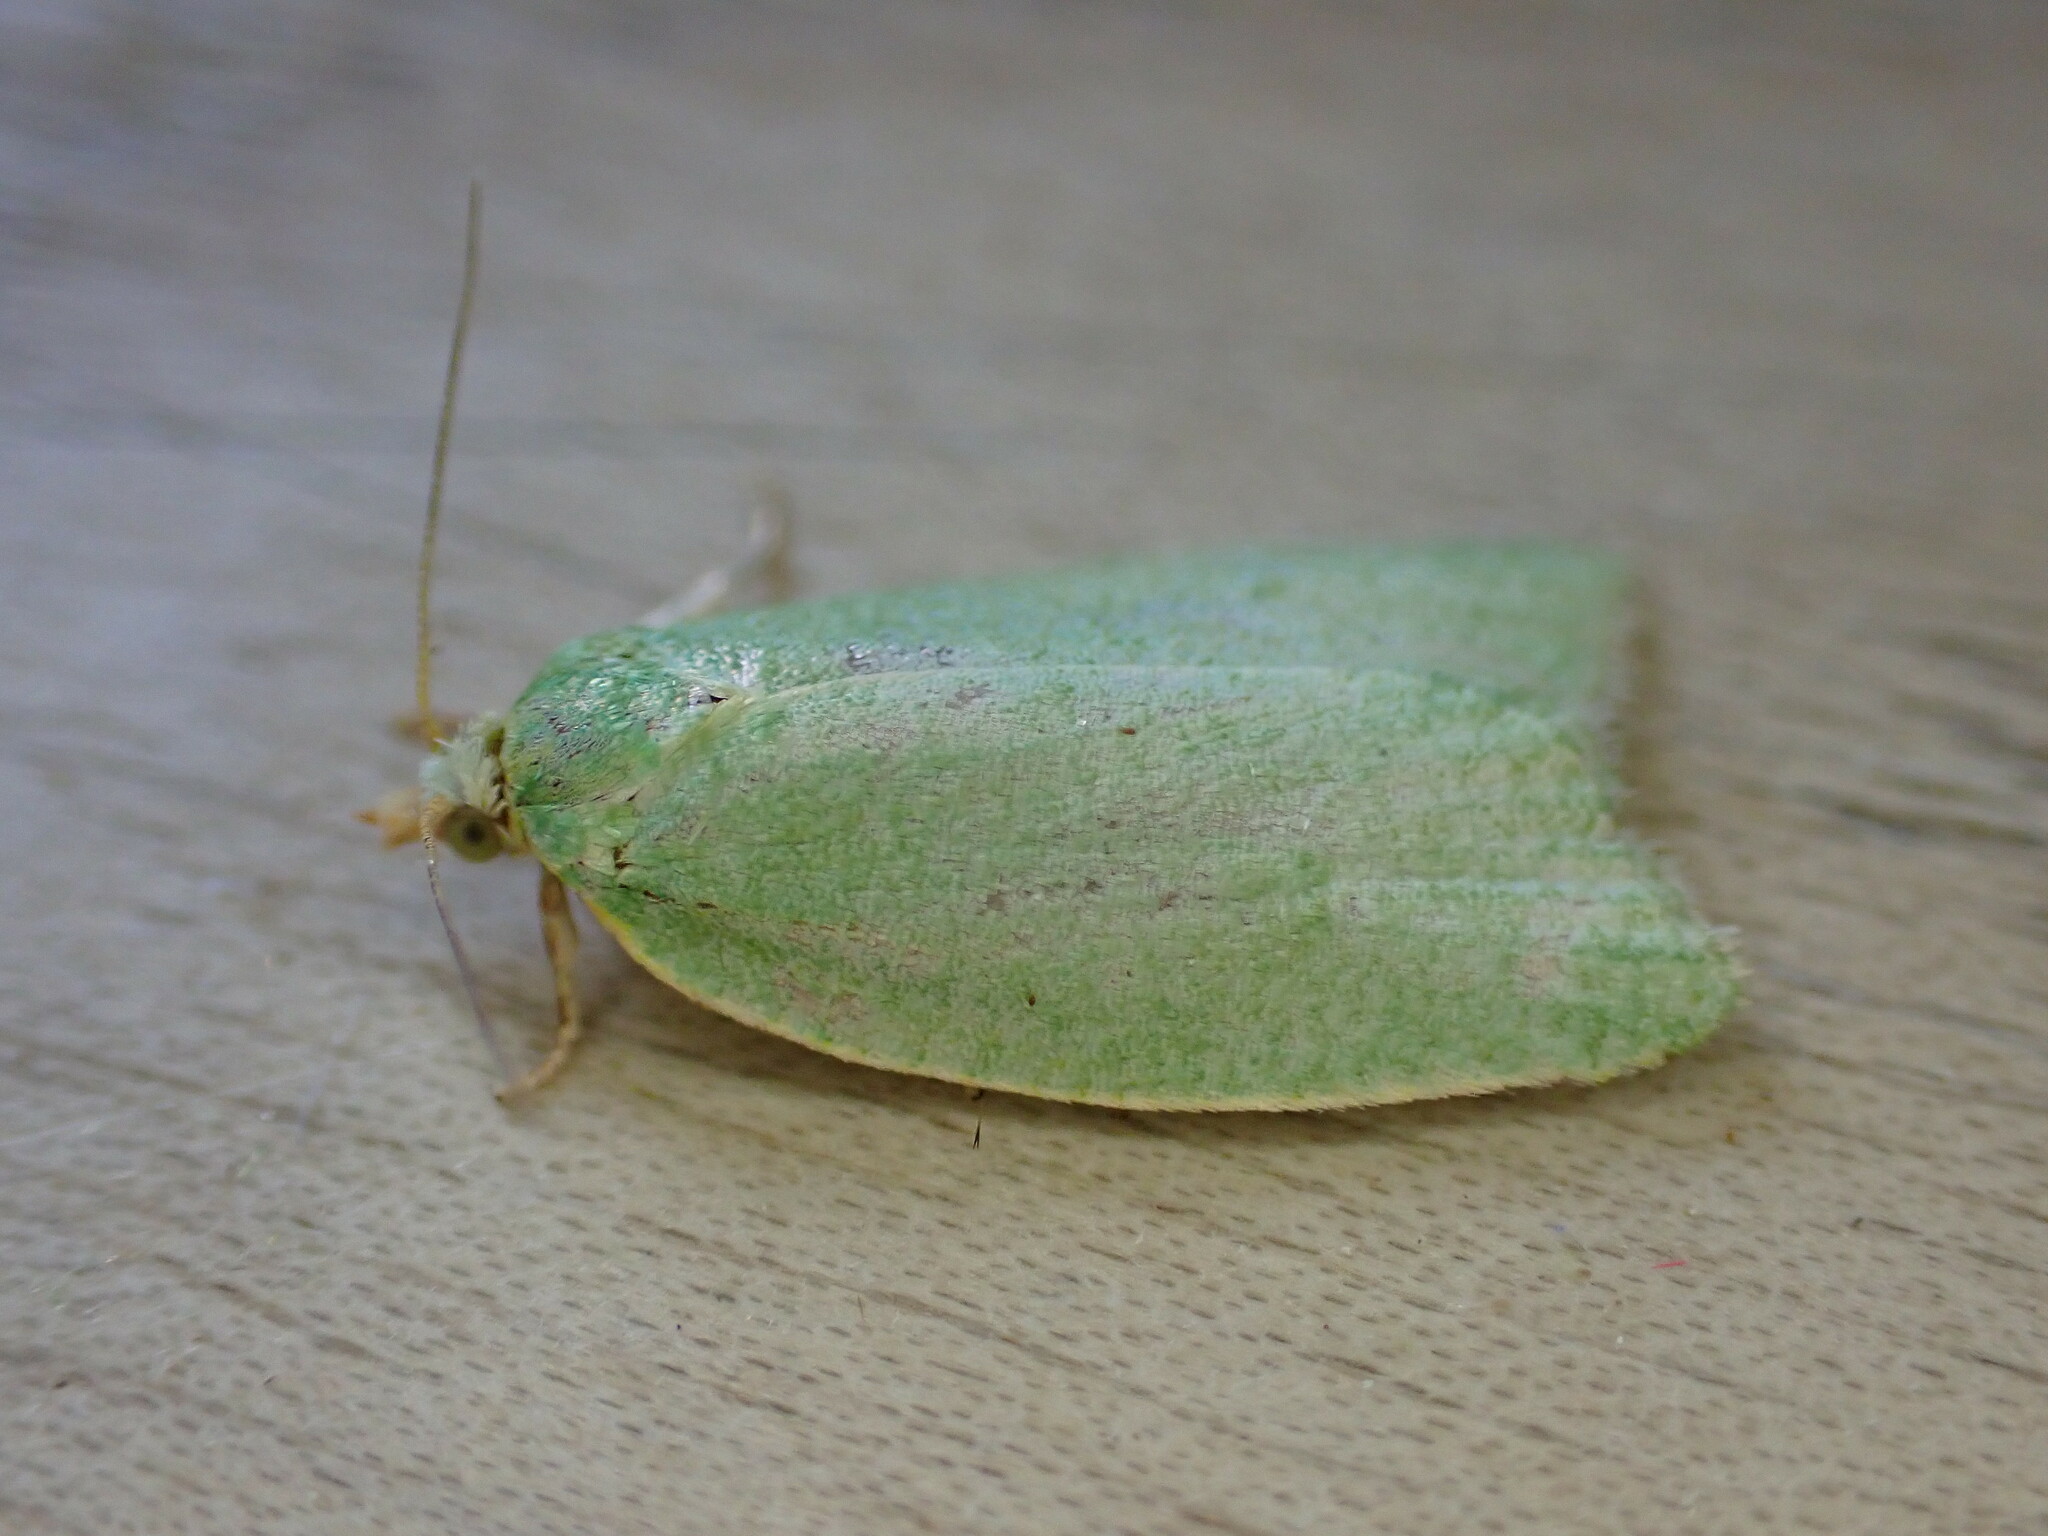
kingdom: Animalia
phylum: Arthropoda
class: Insecta
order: Lepidoptera
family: Tortricidae
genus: Tortrix
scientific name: Tortrix viridana
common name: Green oak tortrix
